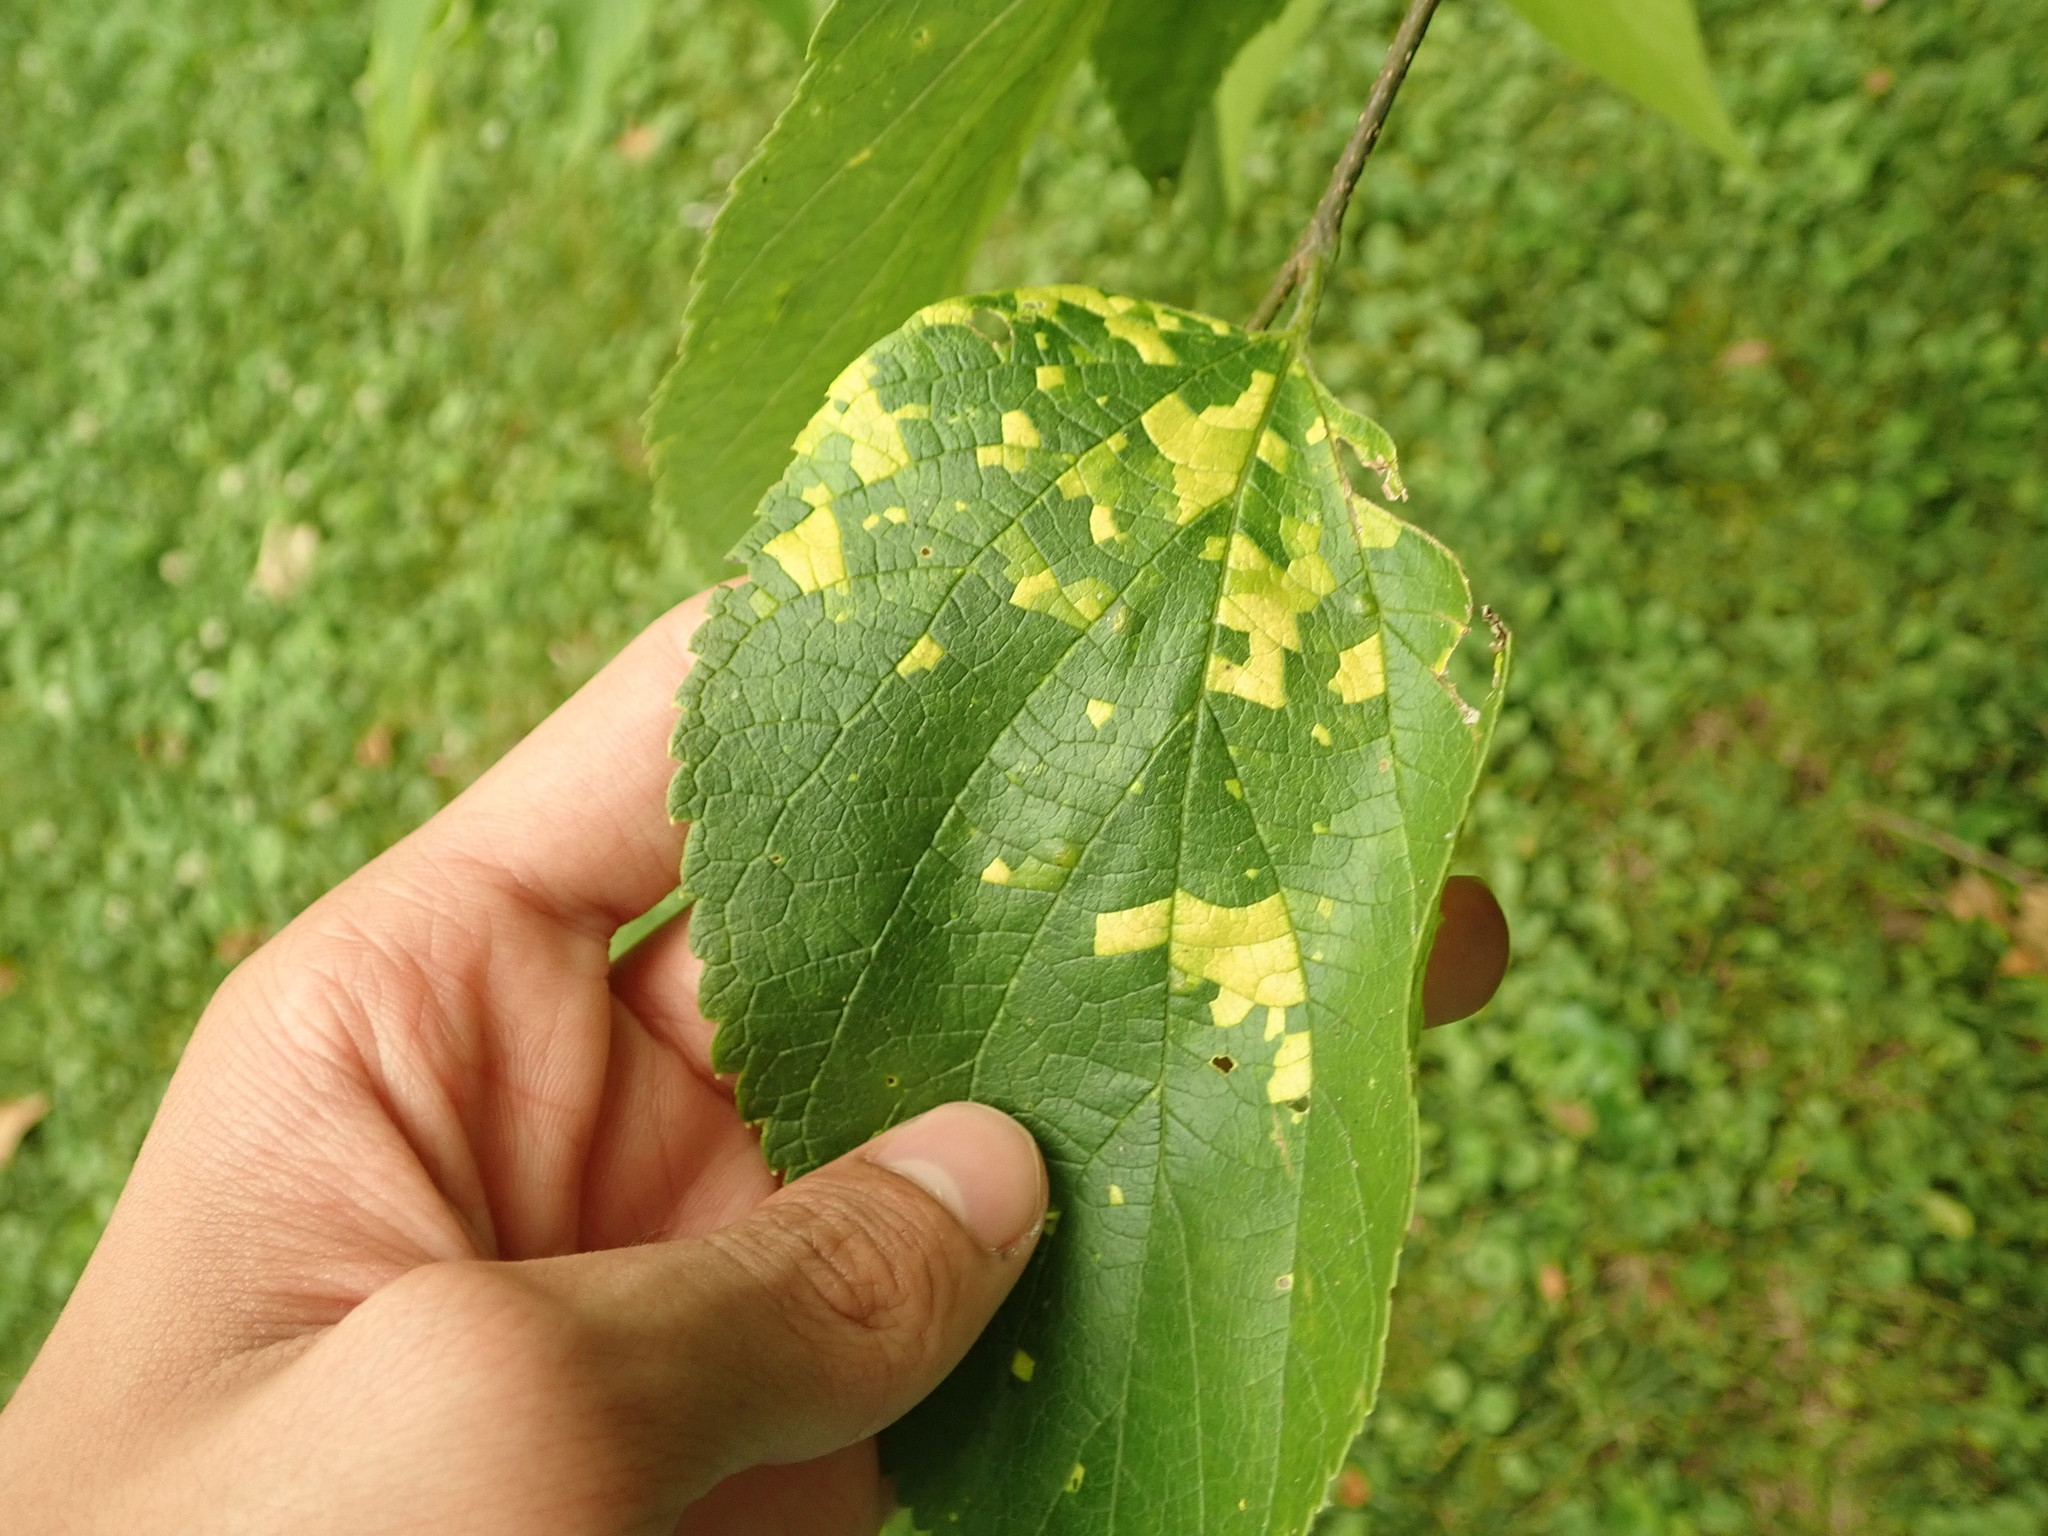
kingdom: Viruses
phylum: Kitrinoviricota
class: Alsuviricetes
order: Martellivirales
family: Closteroviridae
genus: Ampelovirus
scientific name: Ampelovirus
